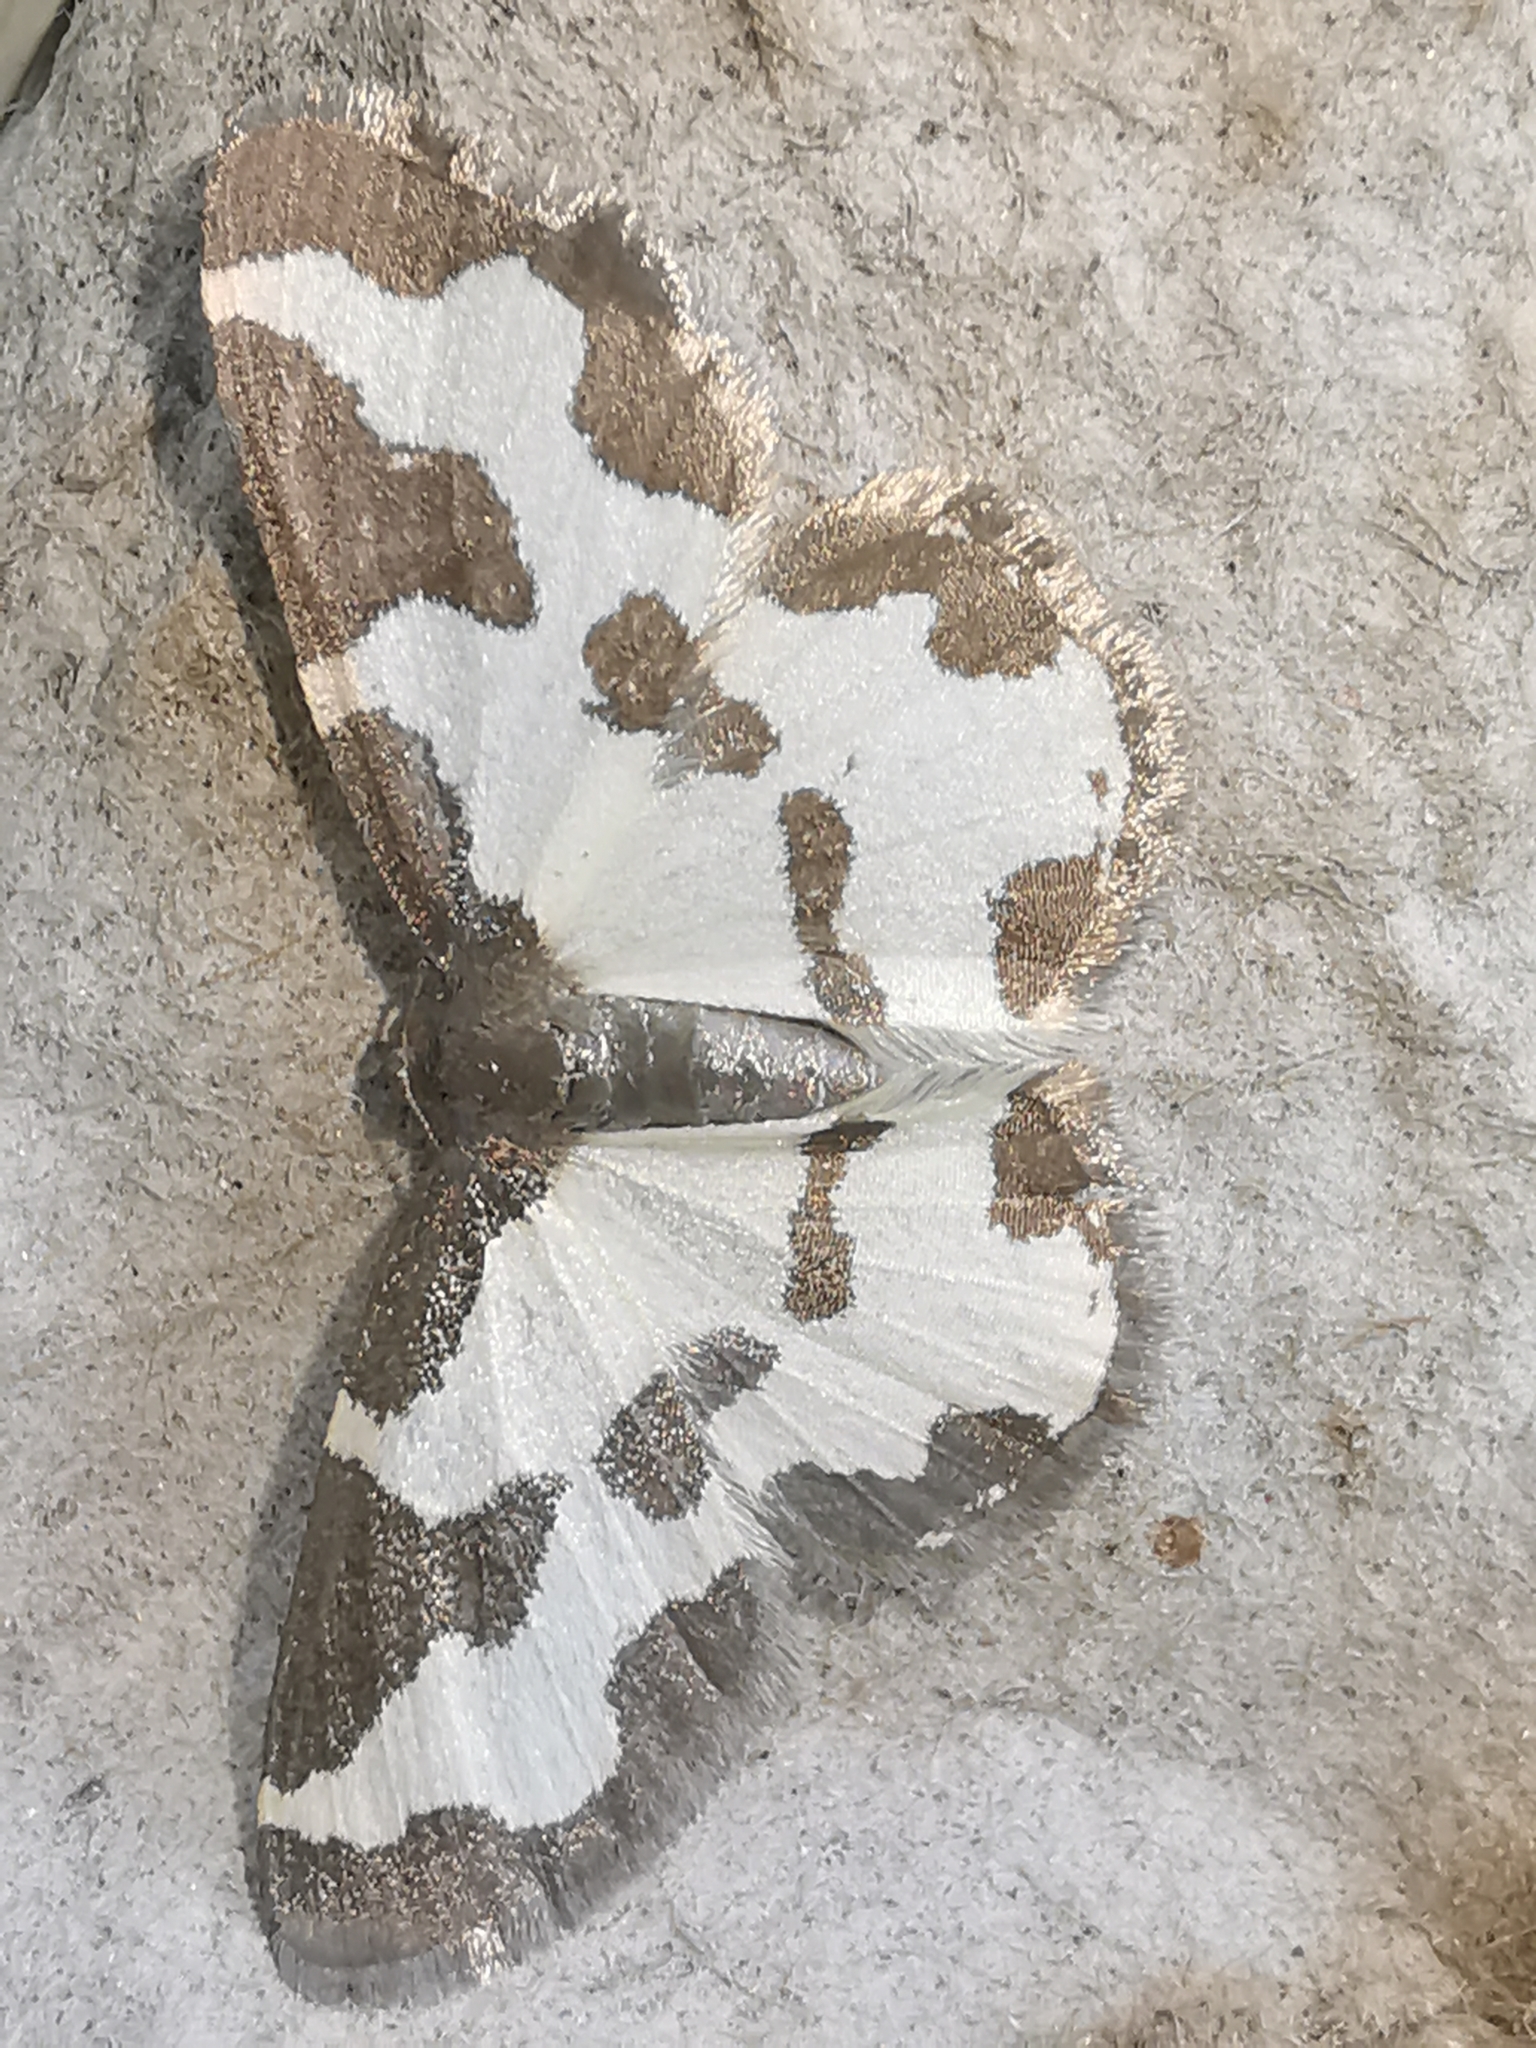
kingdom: Animalia
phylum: Arthropoda
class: Insecta
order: Lepidoptera
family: Geometridae
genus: Lomaspilis
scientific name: Lomaspilis marginata
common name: Clouded border
